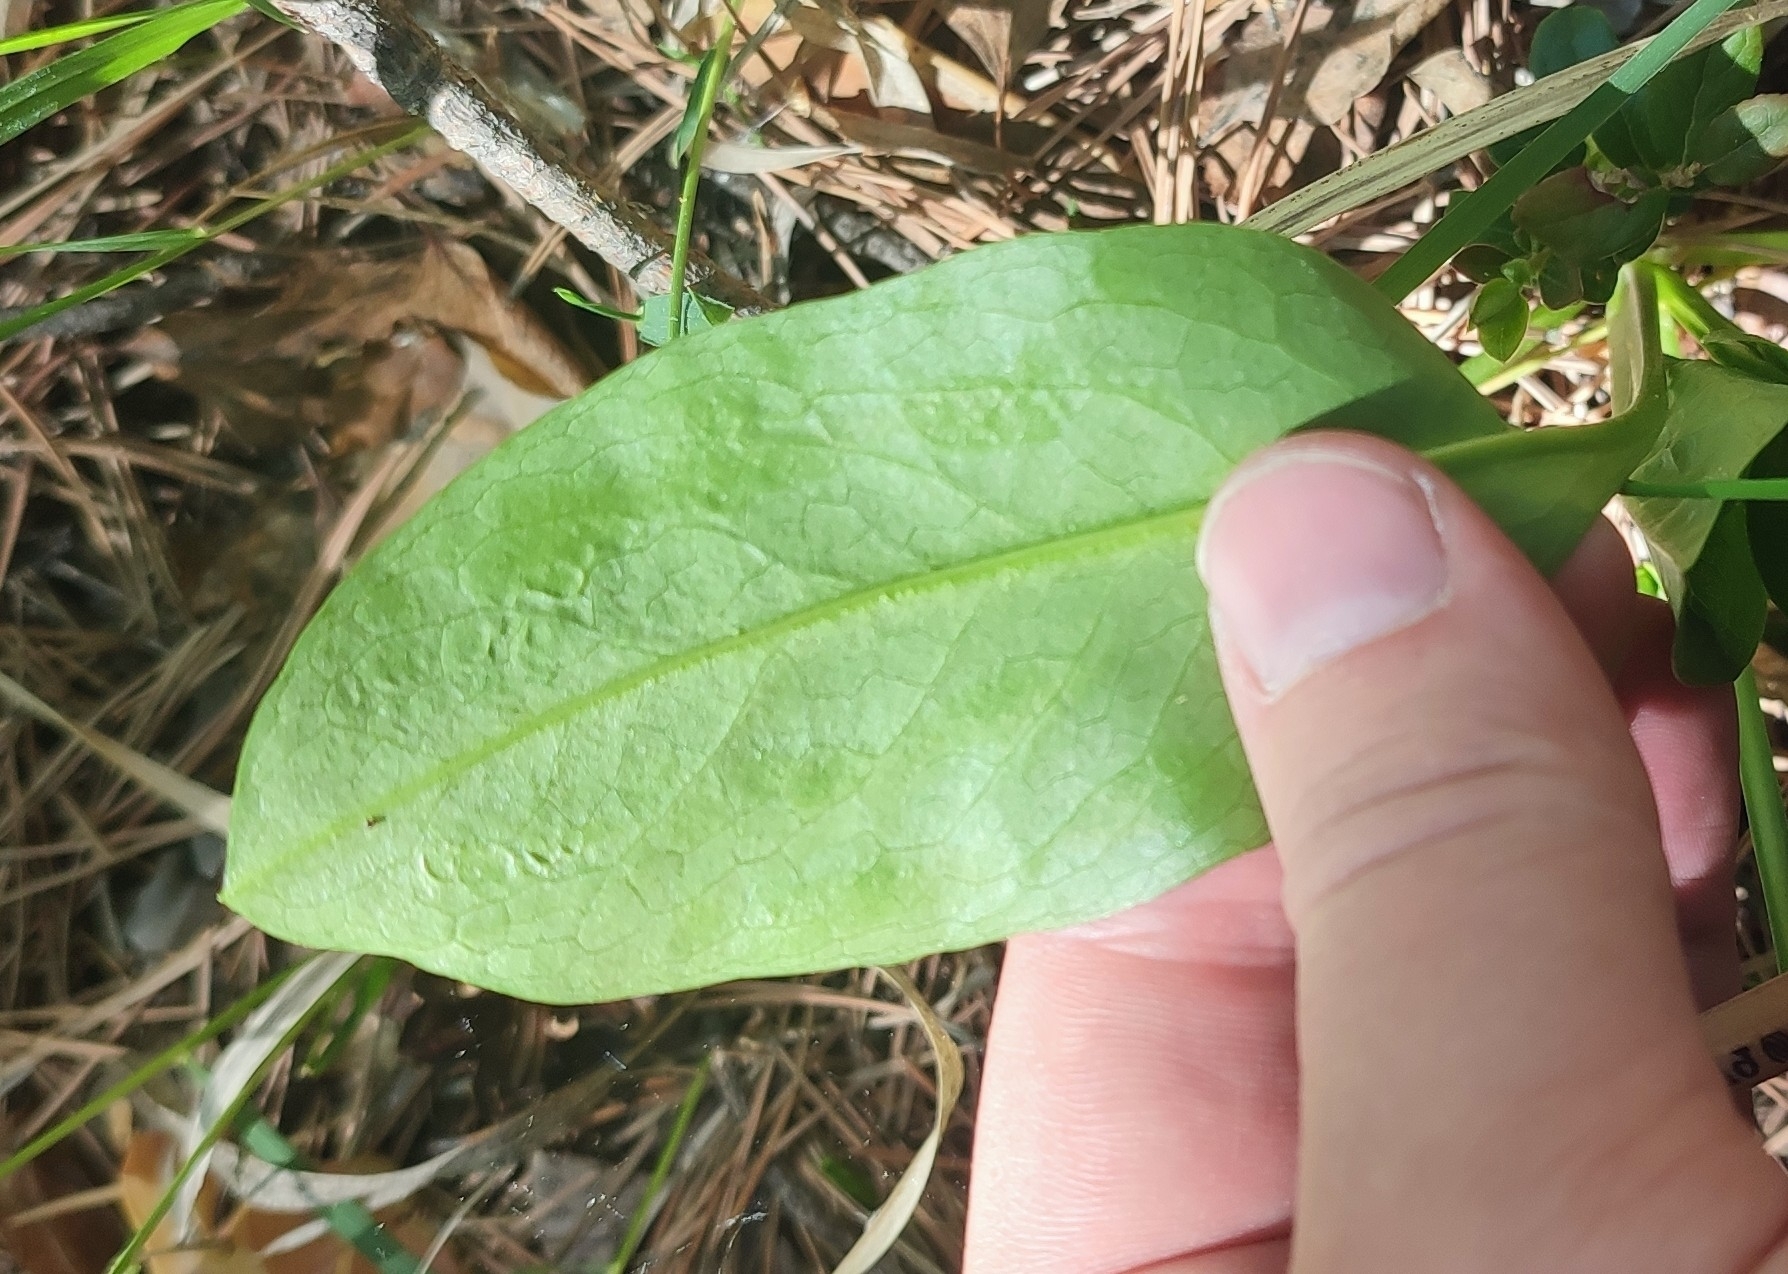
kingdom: Plantae
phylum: Tracheophyta
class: Magnoliopsida
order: Dipsacales
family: Caprifoliaceae
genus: Succisa
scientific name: Succisa pratensis
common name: Devil's-bit
